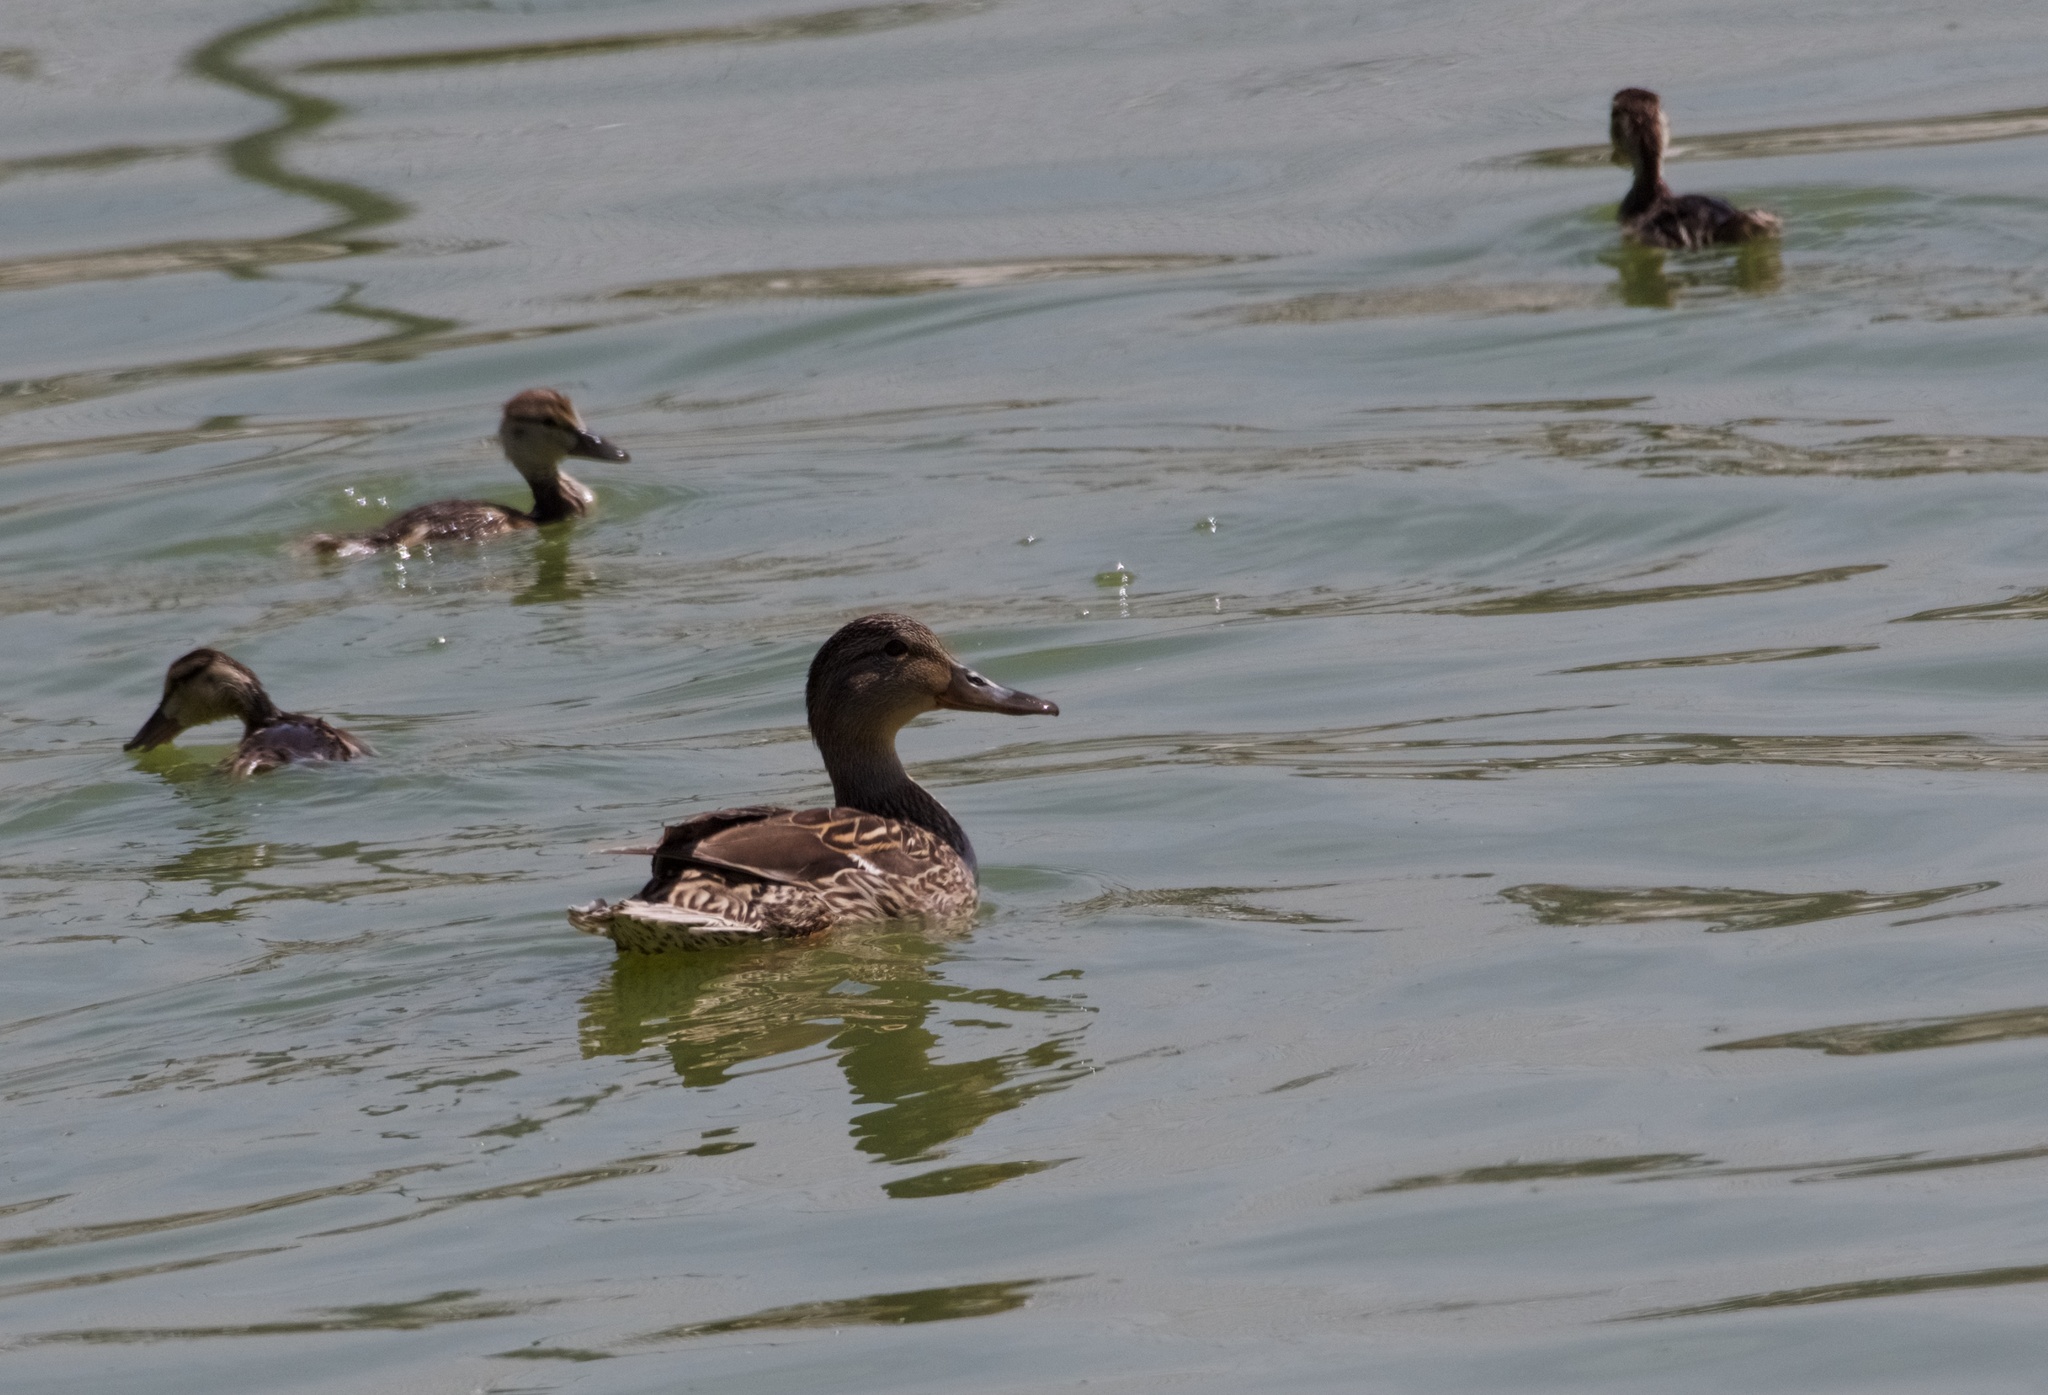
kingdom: Animalia
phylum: Chordata
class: Aves
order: Anseriformes
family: Anatidae
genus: Anas
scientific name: Anas platyrhynchos
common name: Mallard
